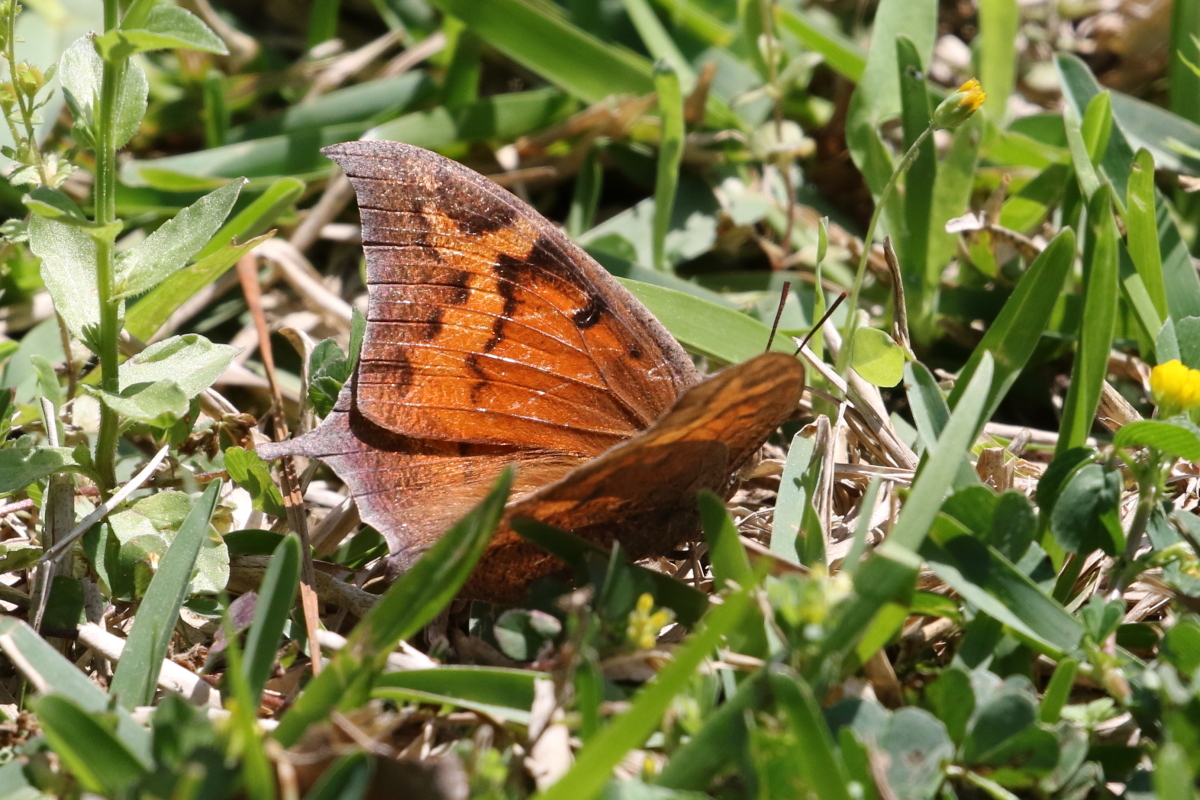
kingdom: Animalia
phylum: Arthropoda
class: Insecta
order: Lepidoptera
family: Nymphalidae
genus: Anaea
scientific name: Anaea andria
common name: Goatweed leafwing
